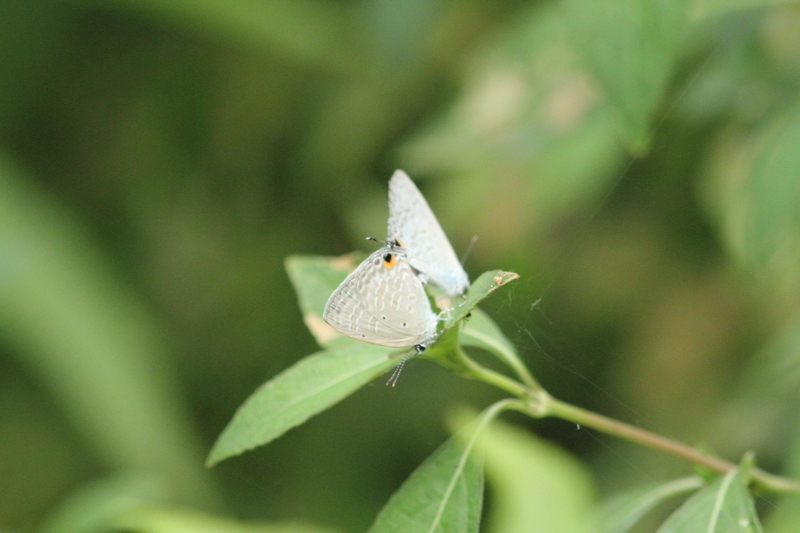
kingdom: Animalia
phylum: Arthropoda
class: Insecta
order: Lepidoptera
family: Lycaenidae
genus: Catochrysops
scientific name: Catochrysops strabo
